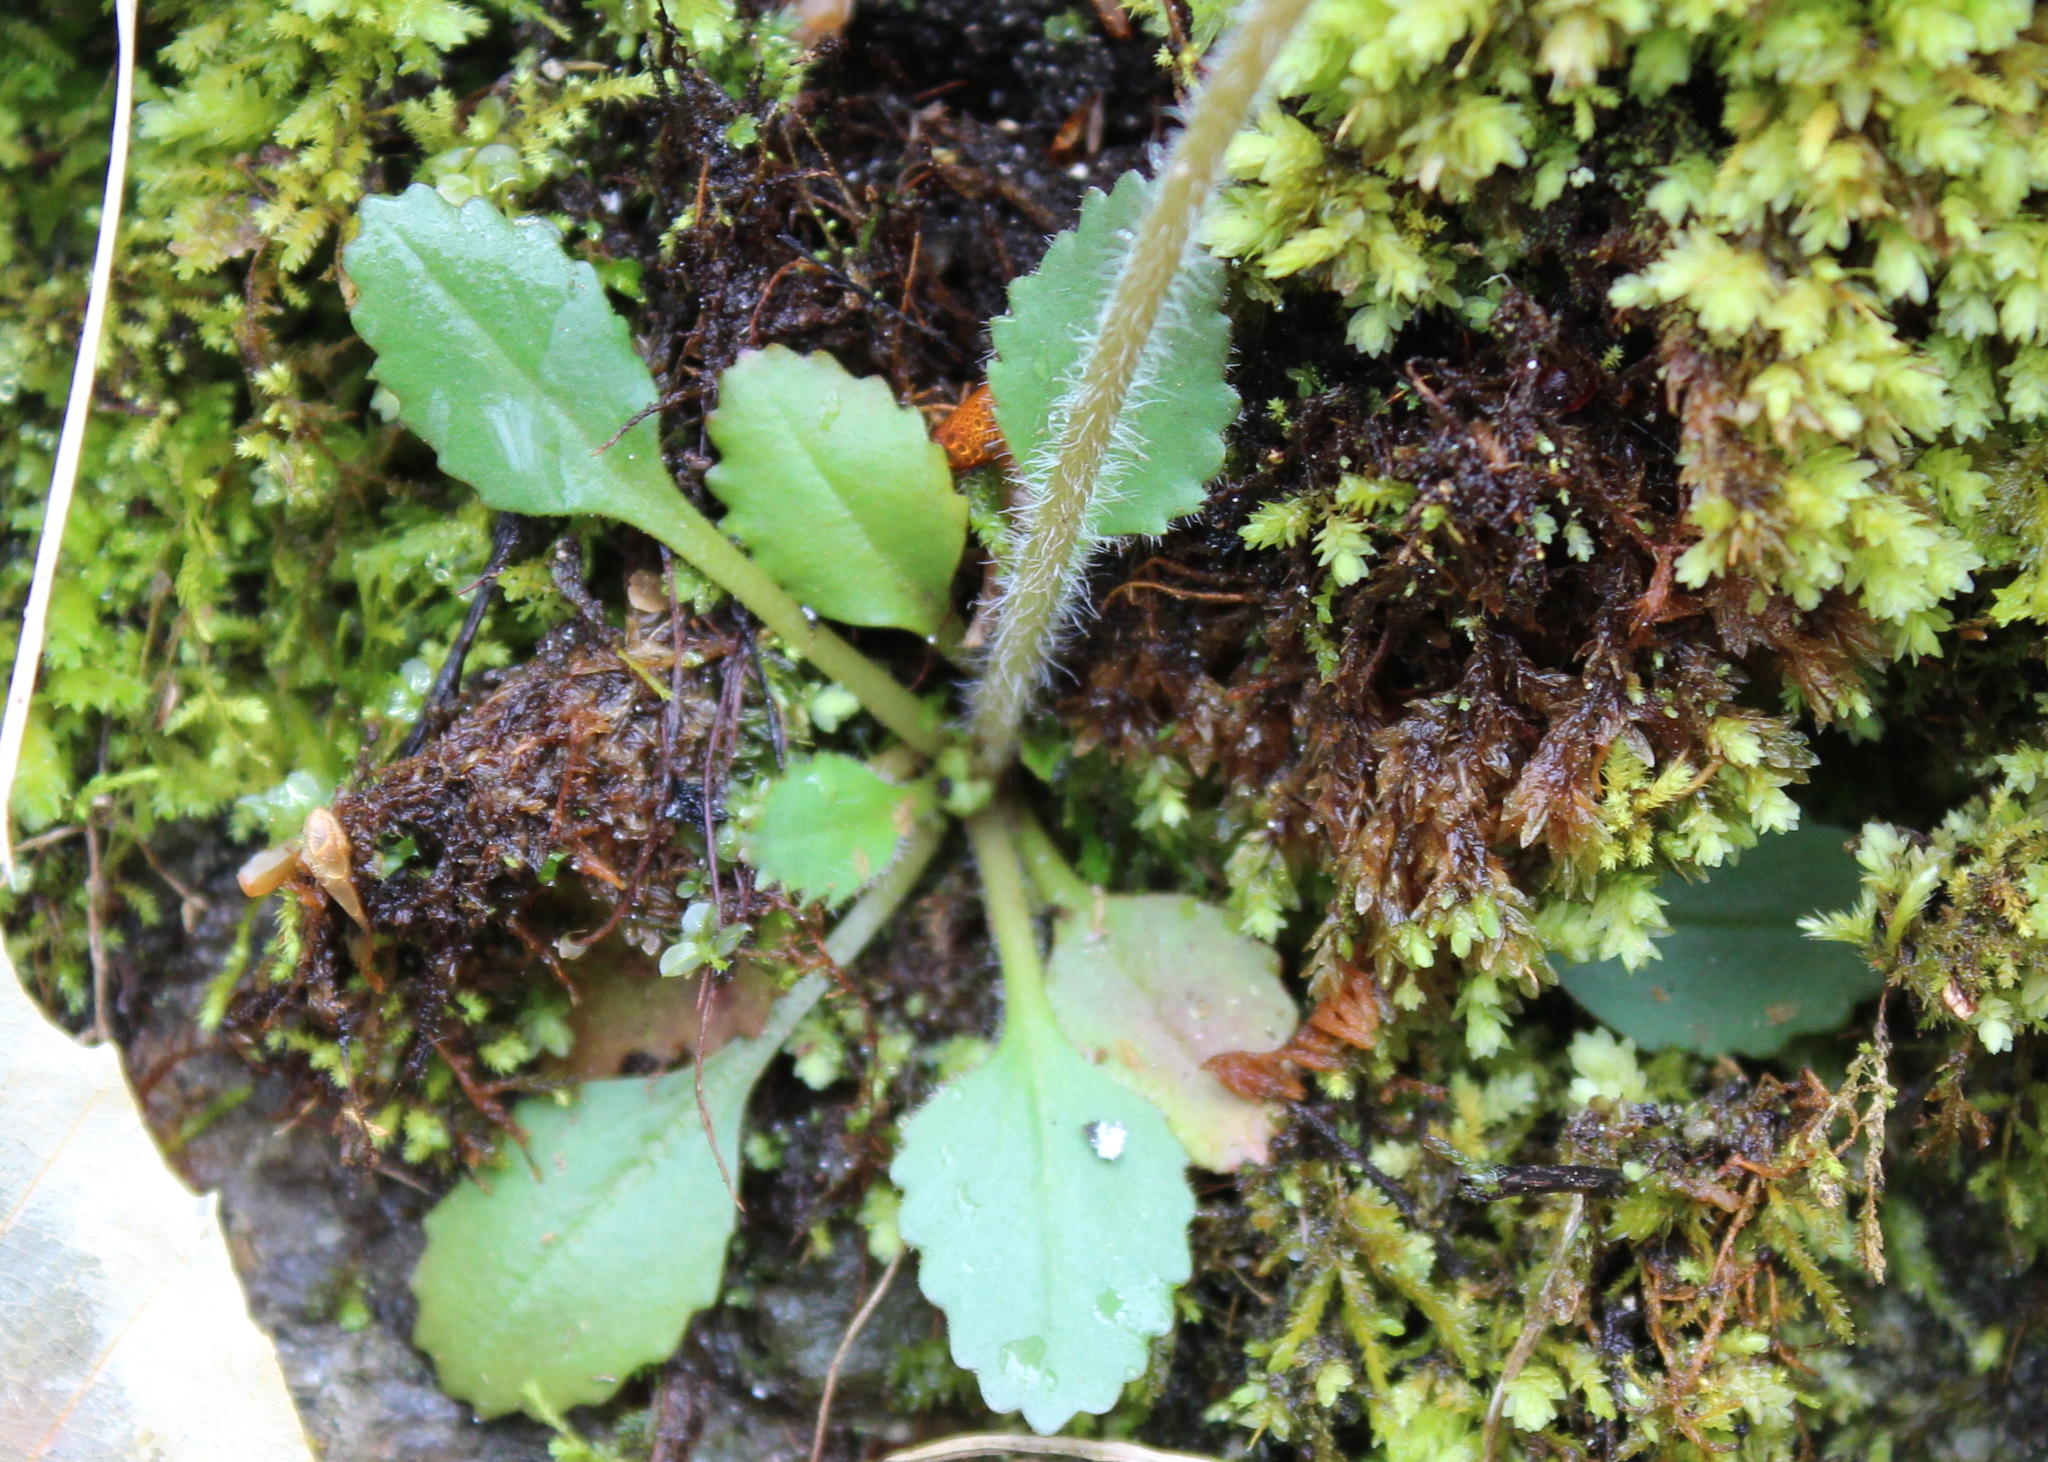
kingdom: Plantae
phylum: Tracheophyta
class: Magnoliopsida
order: Saxifragales
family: Saxifragaceae
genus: Micranthes
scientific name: Micranthes virginiensis
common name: Early saxifrage
